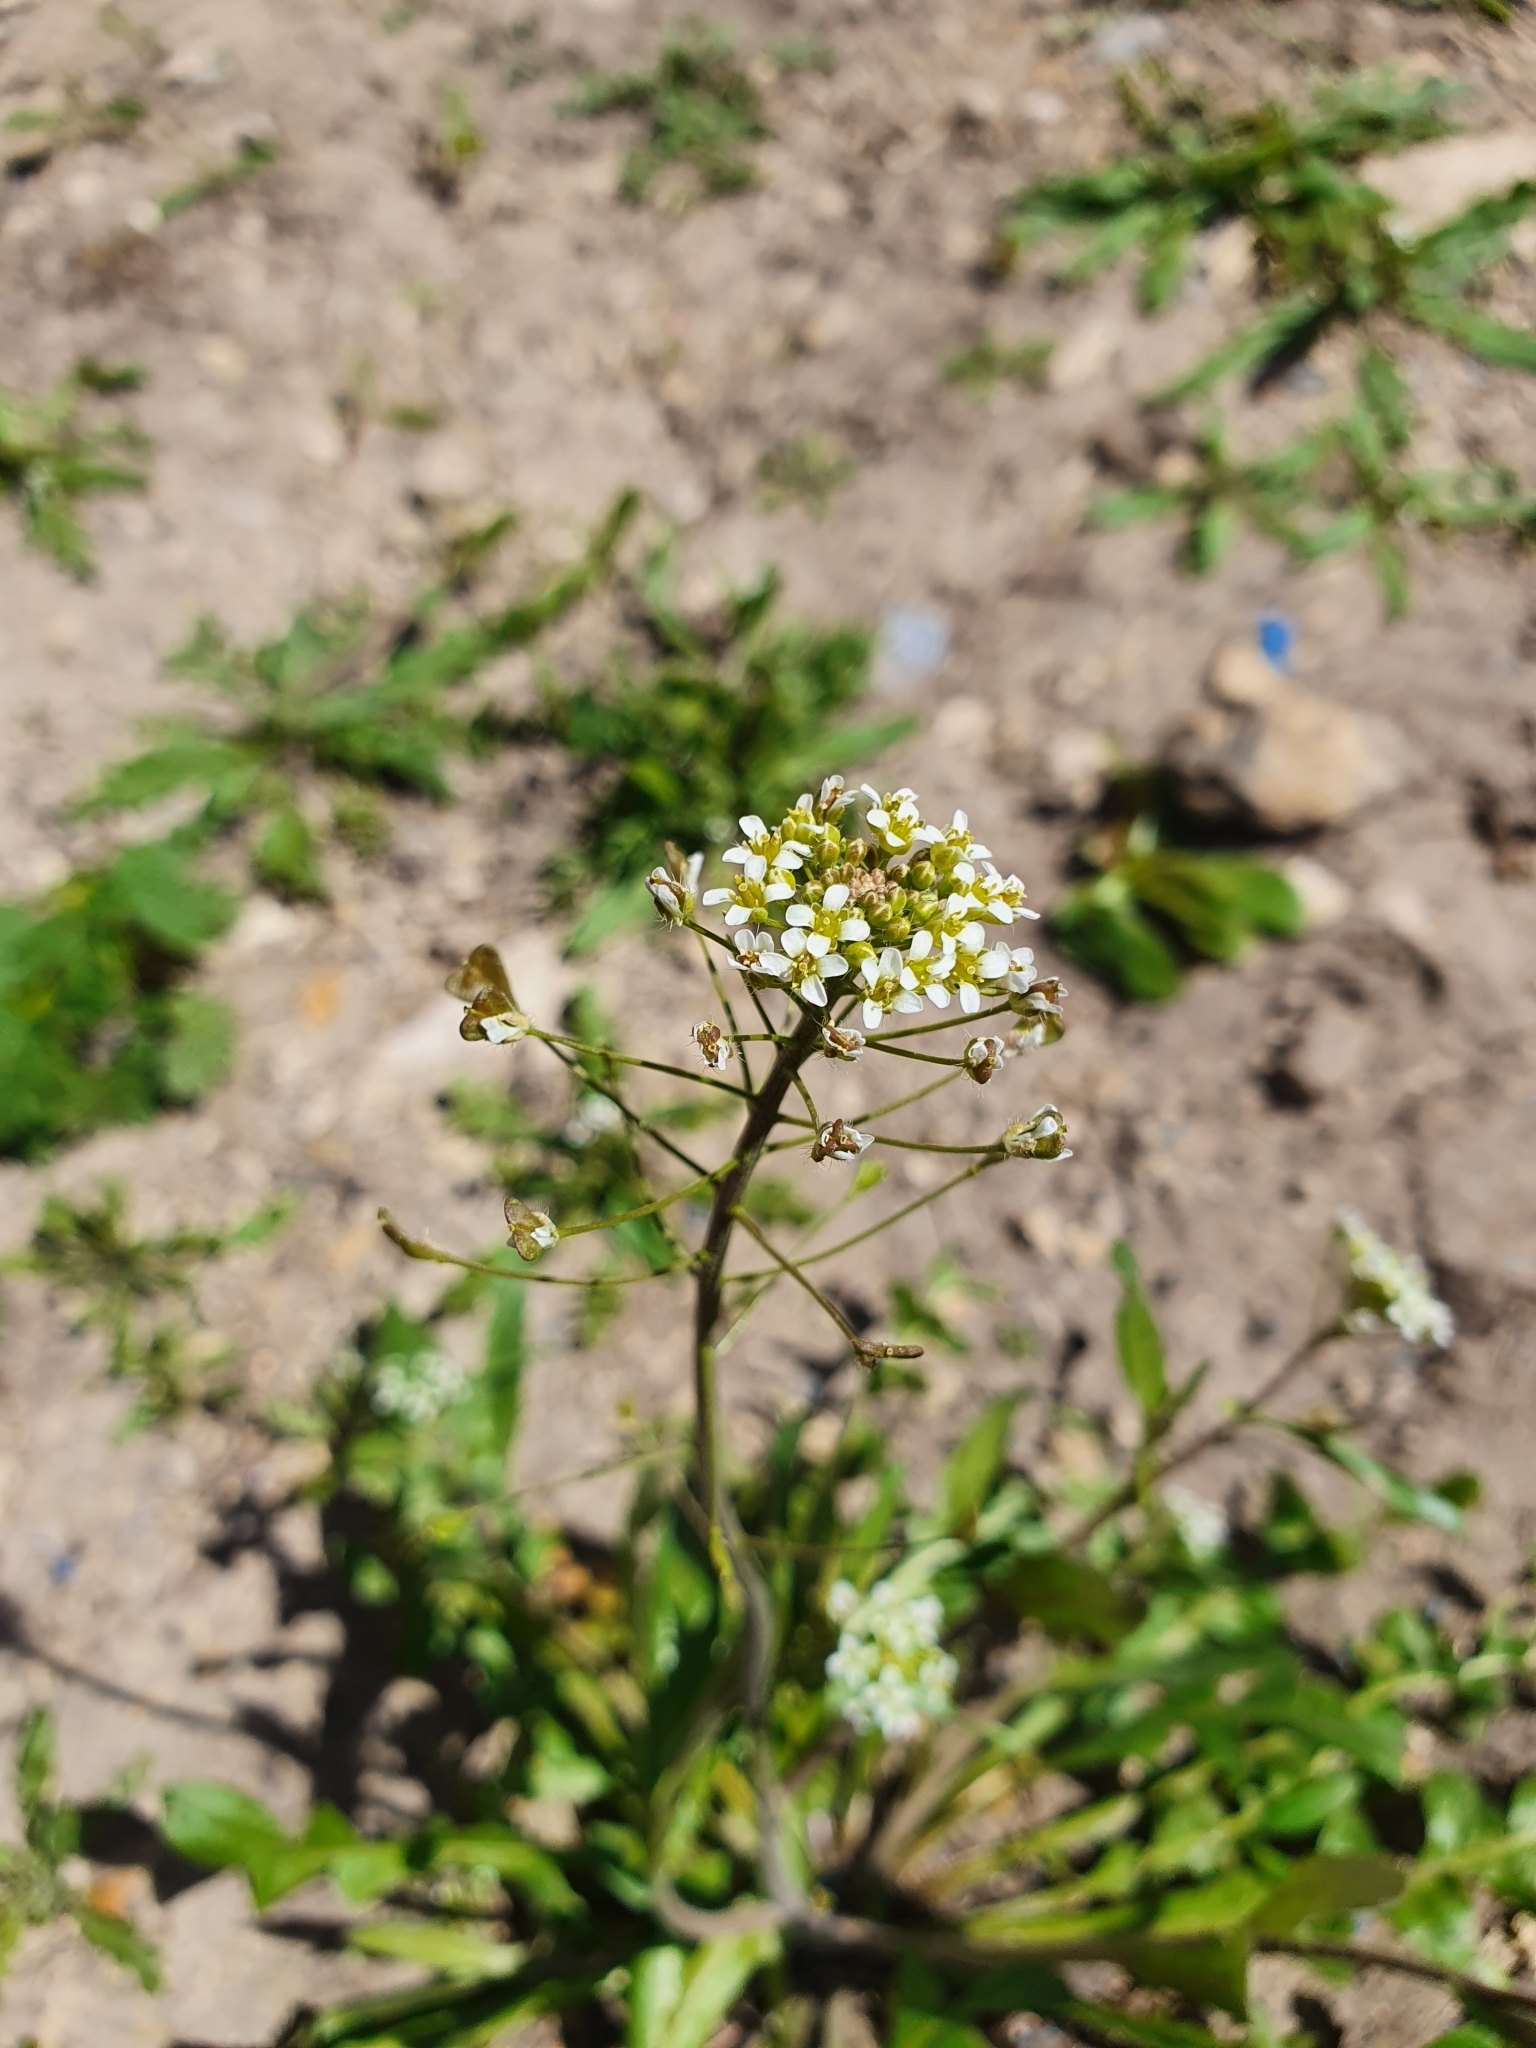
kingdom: Plantae
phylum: Tracheophyta
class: Magnoliopsida
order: Brassicales
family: Brassicaceae
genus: Capsella
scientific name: Capsella bursa-pastoris
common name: Shepherd's purse
